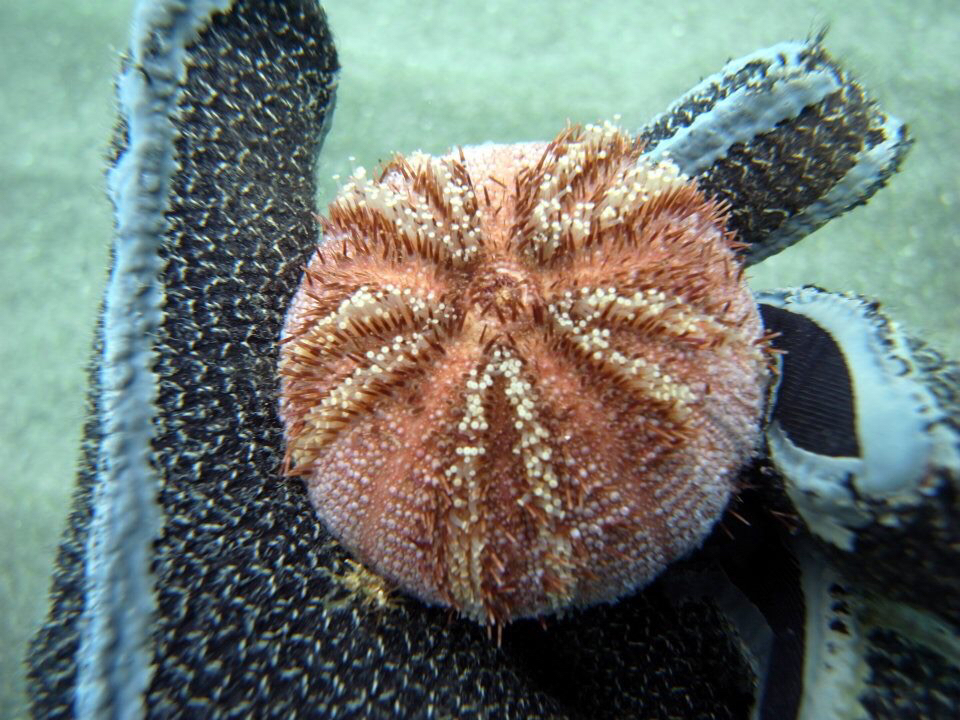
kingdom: Animalia
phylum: Echinodermata
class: Echinoidea
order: Camarodonta
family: Temnopleuridae
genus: Amblypneustes
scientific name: Amblypneustes elevatus
